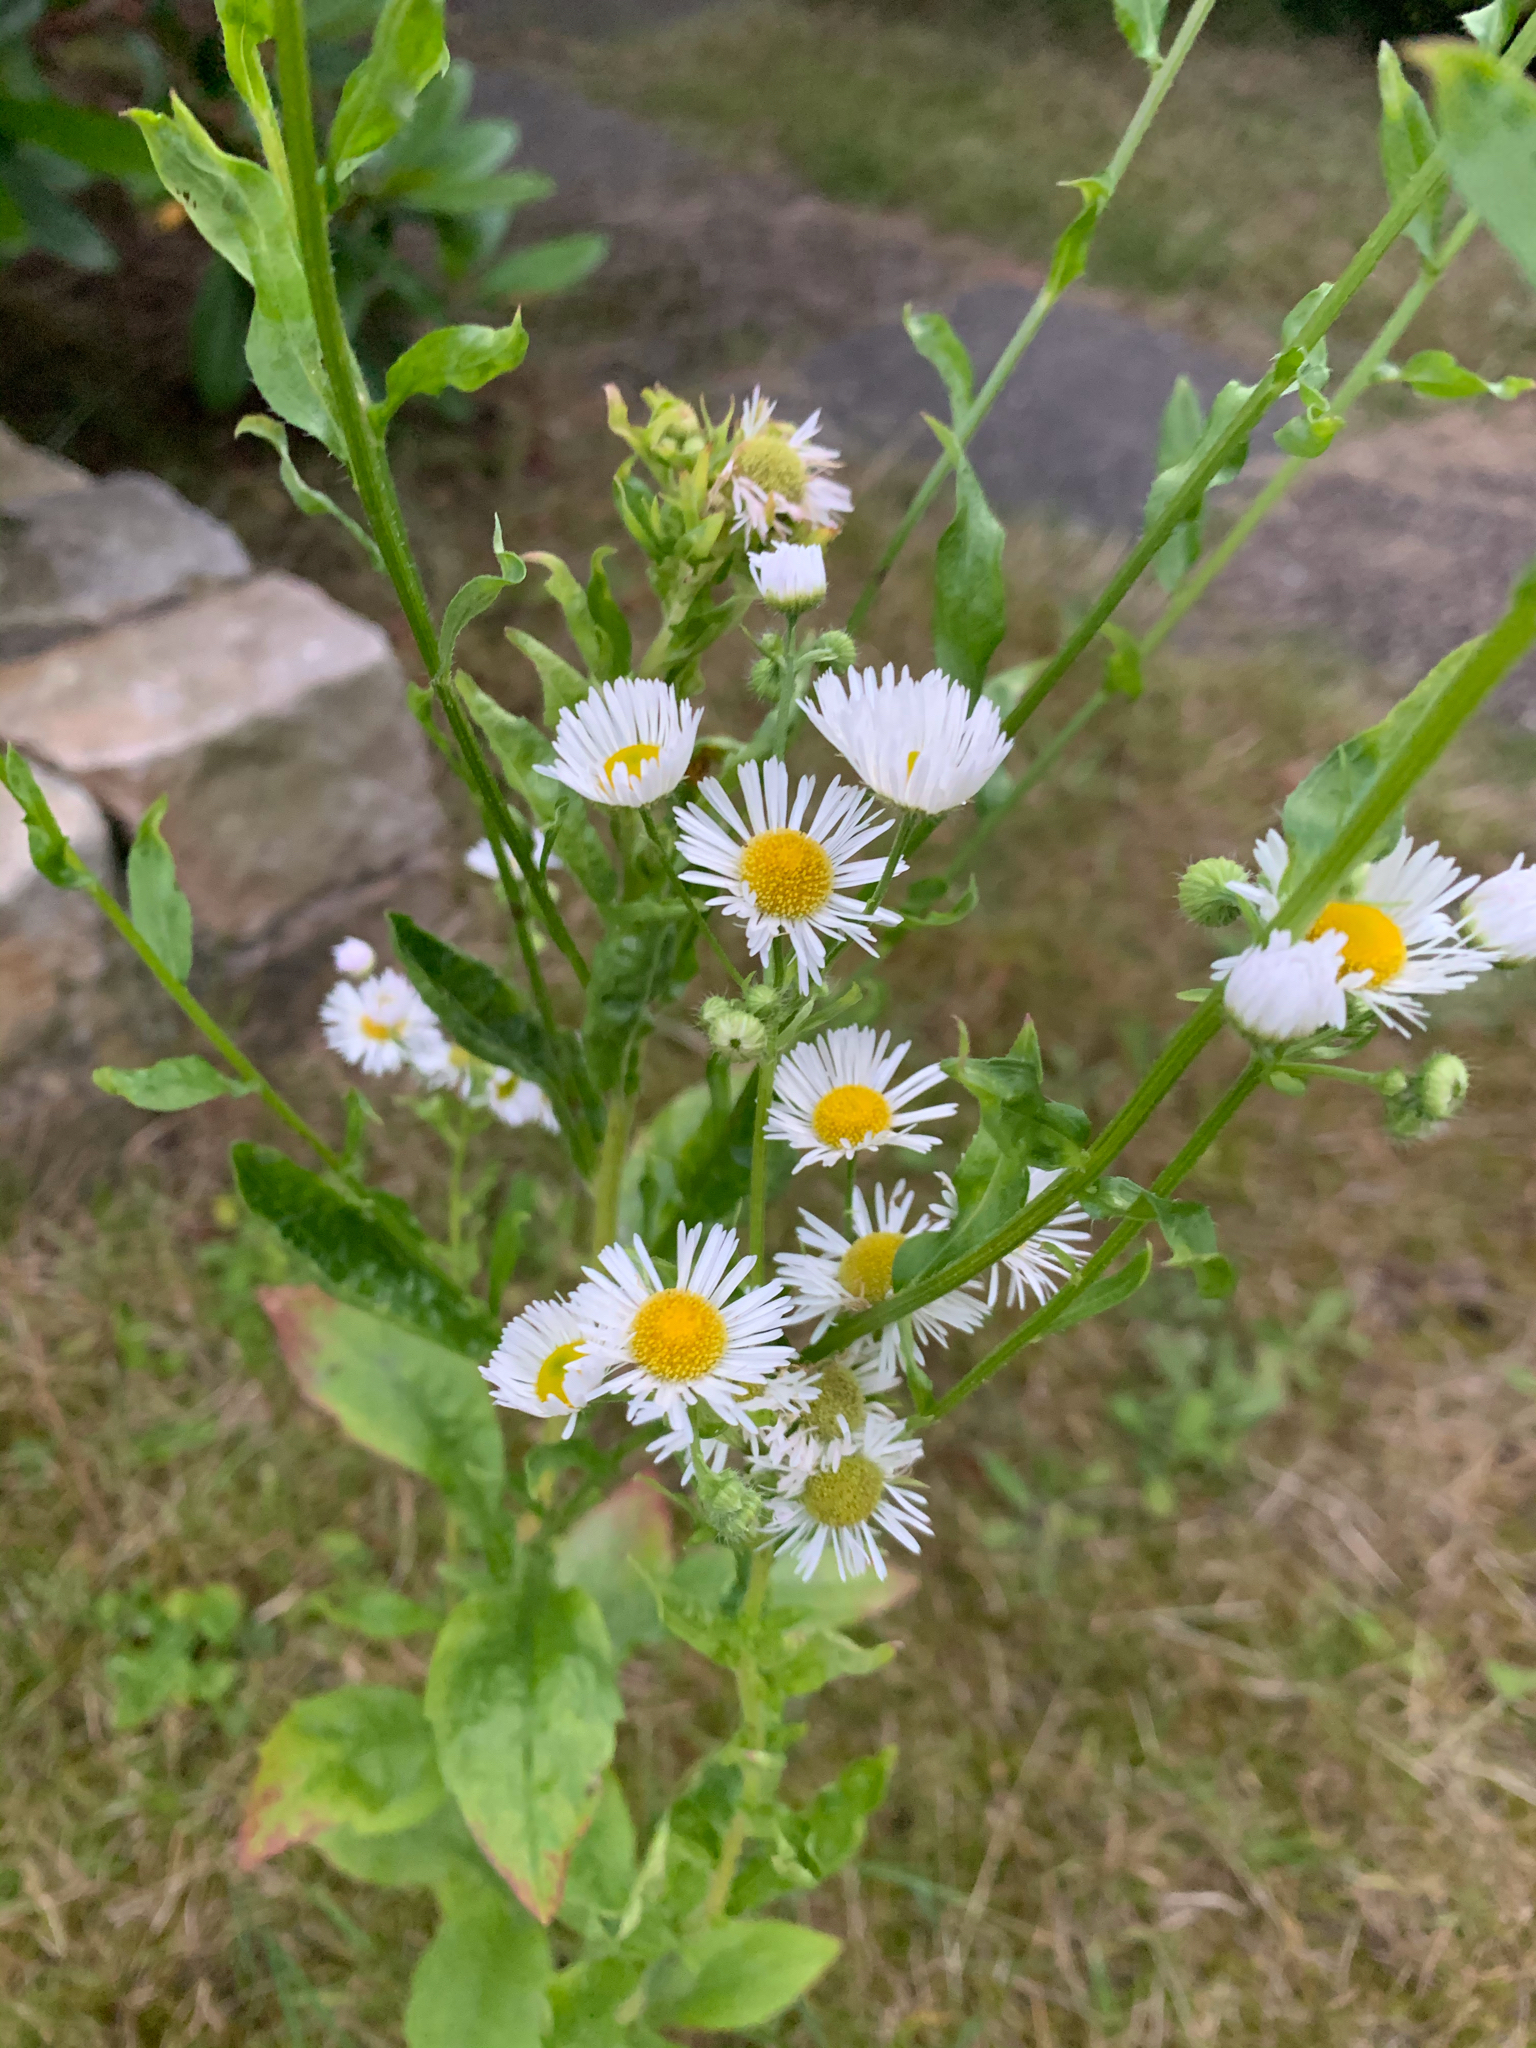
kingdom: Plantae
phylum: Tracheophyta
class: Magnoliopsida
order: Asterales
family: Asteraceae
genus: Erigeron
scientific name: Erigeron annuus
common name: Tall fleabane
